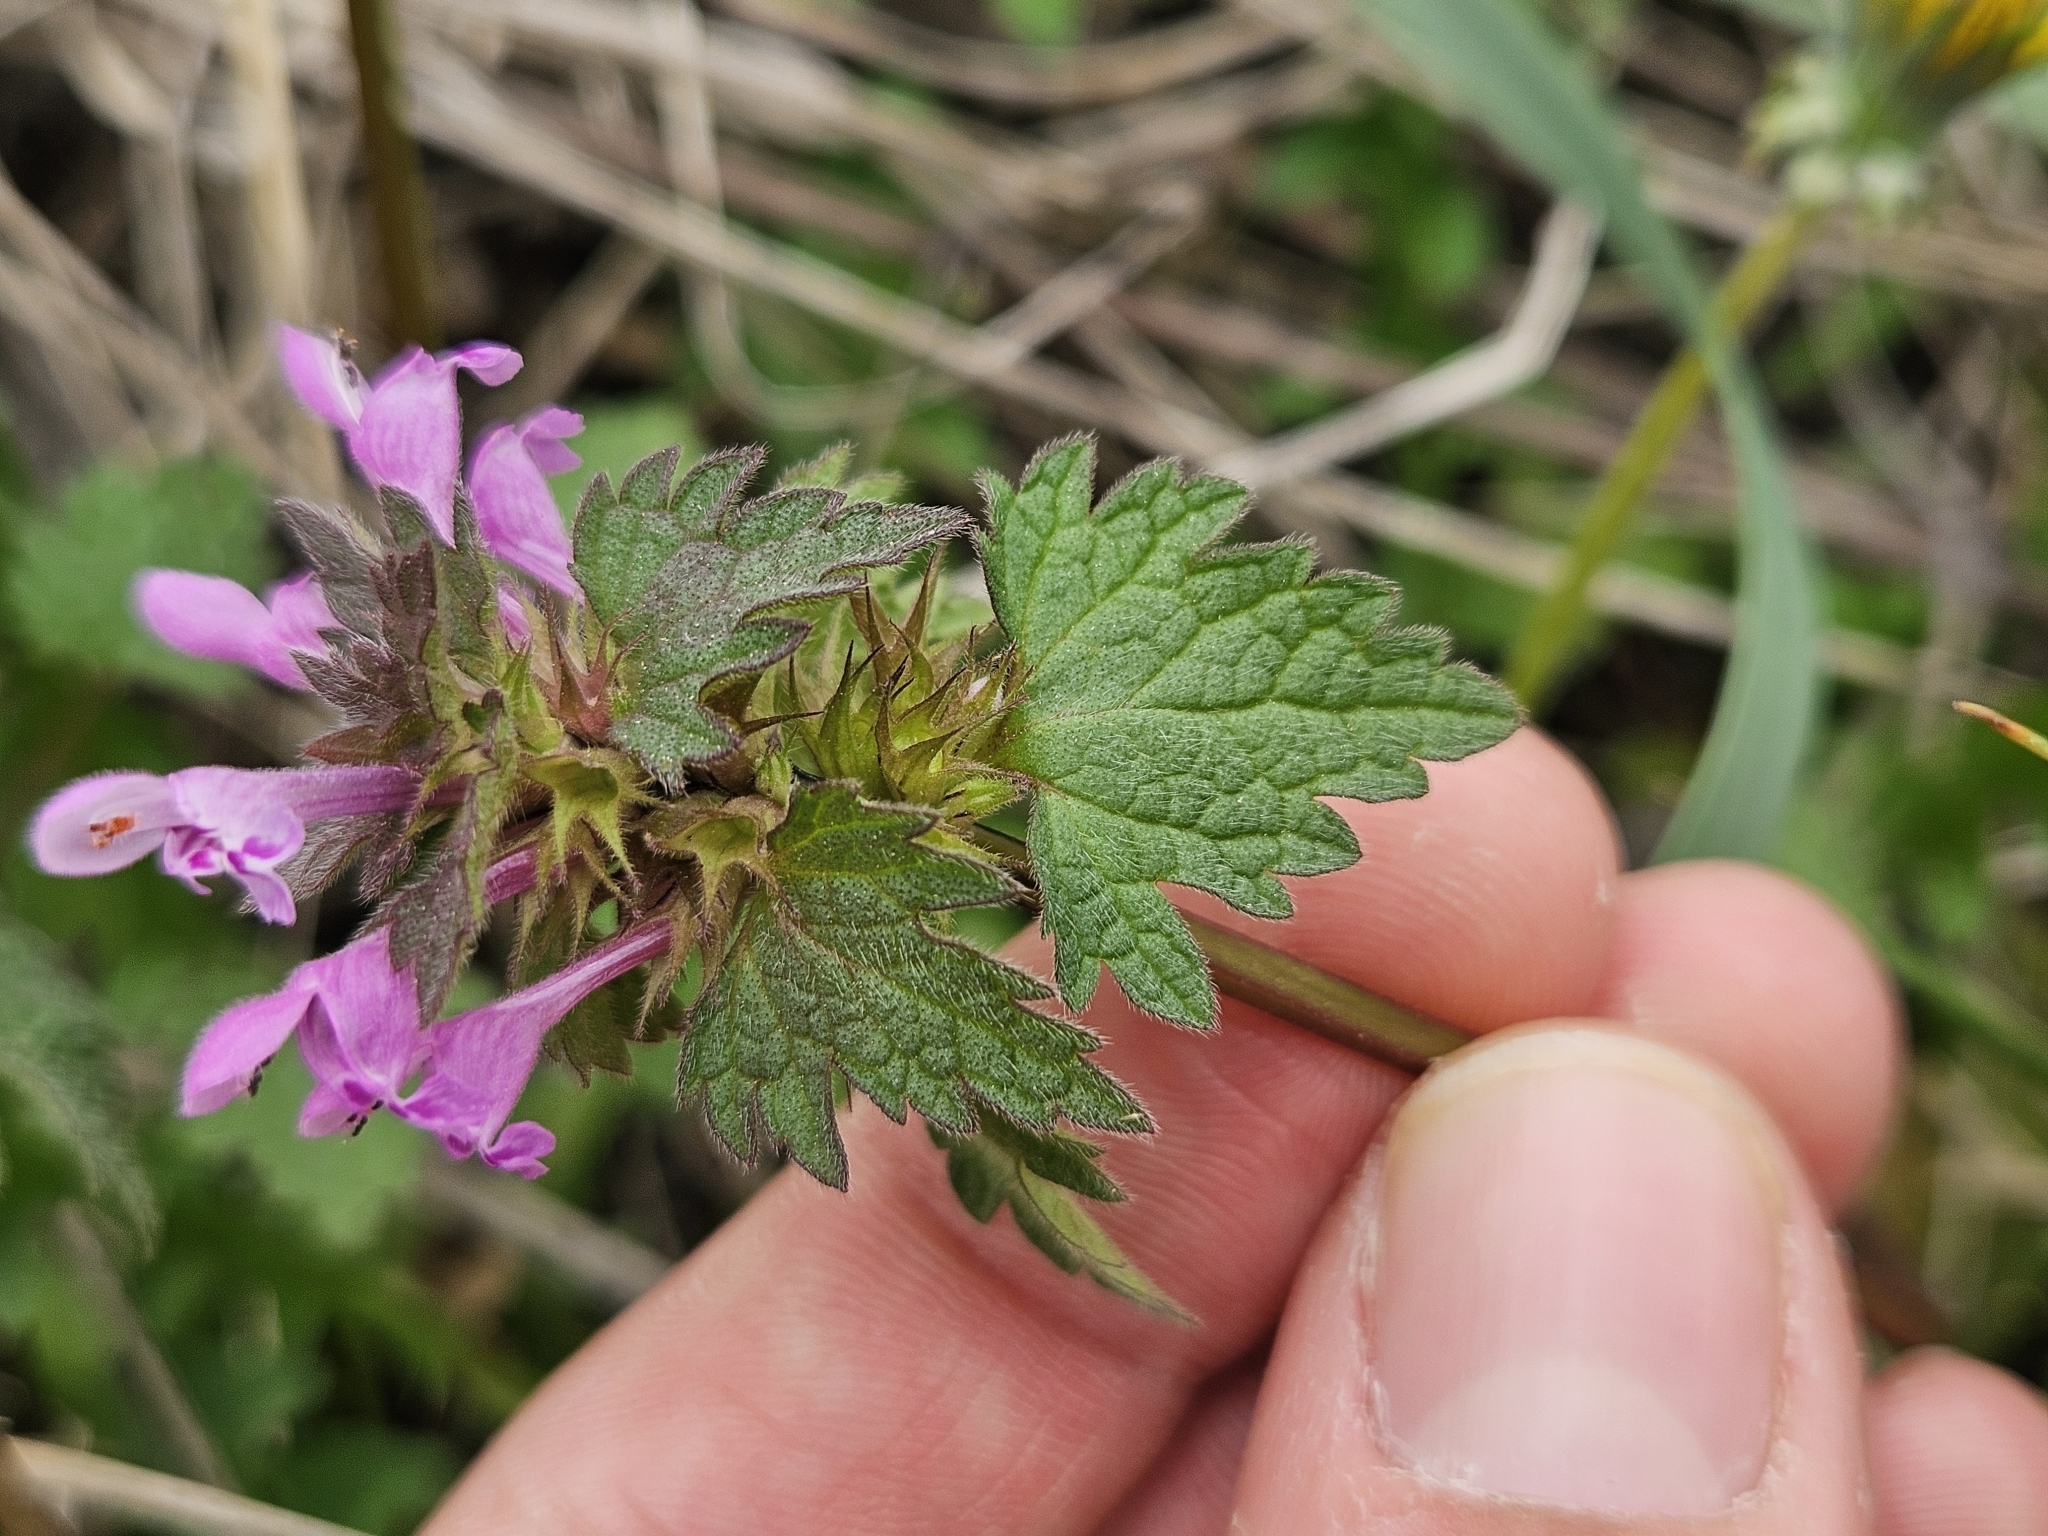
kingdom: Plantae
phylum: Tracheophyta
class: Magnoliopsida
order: Lamiales
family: Lamiaceae
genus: Lamium
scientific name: Lamium hybridum
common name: Cut-leaved dead-nettle
